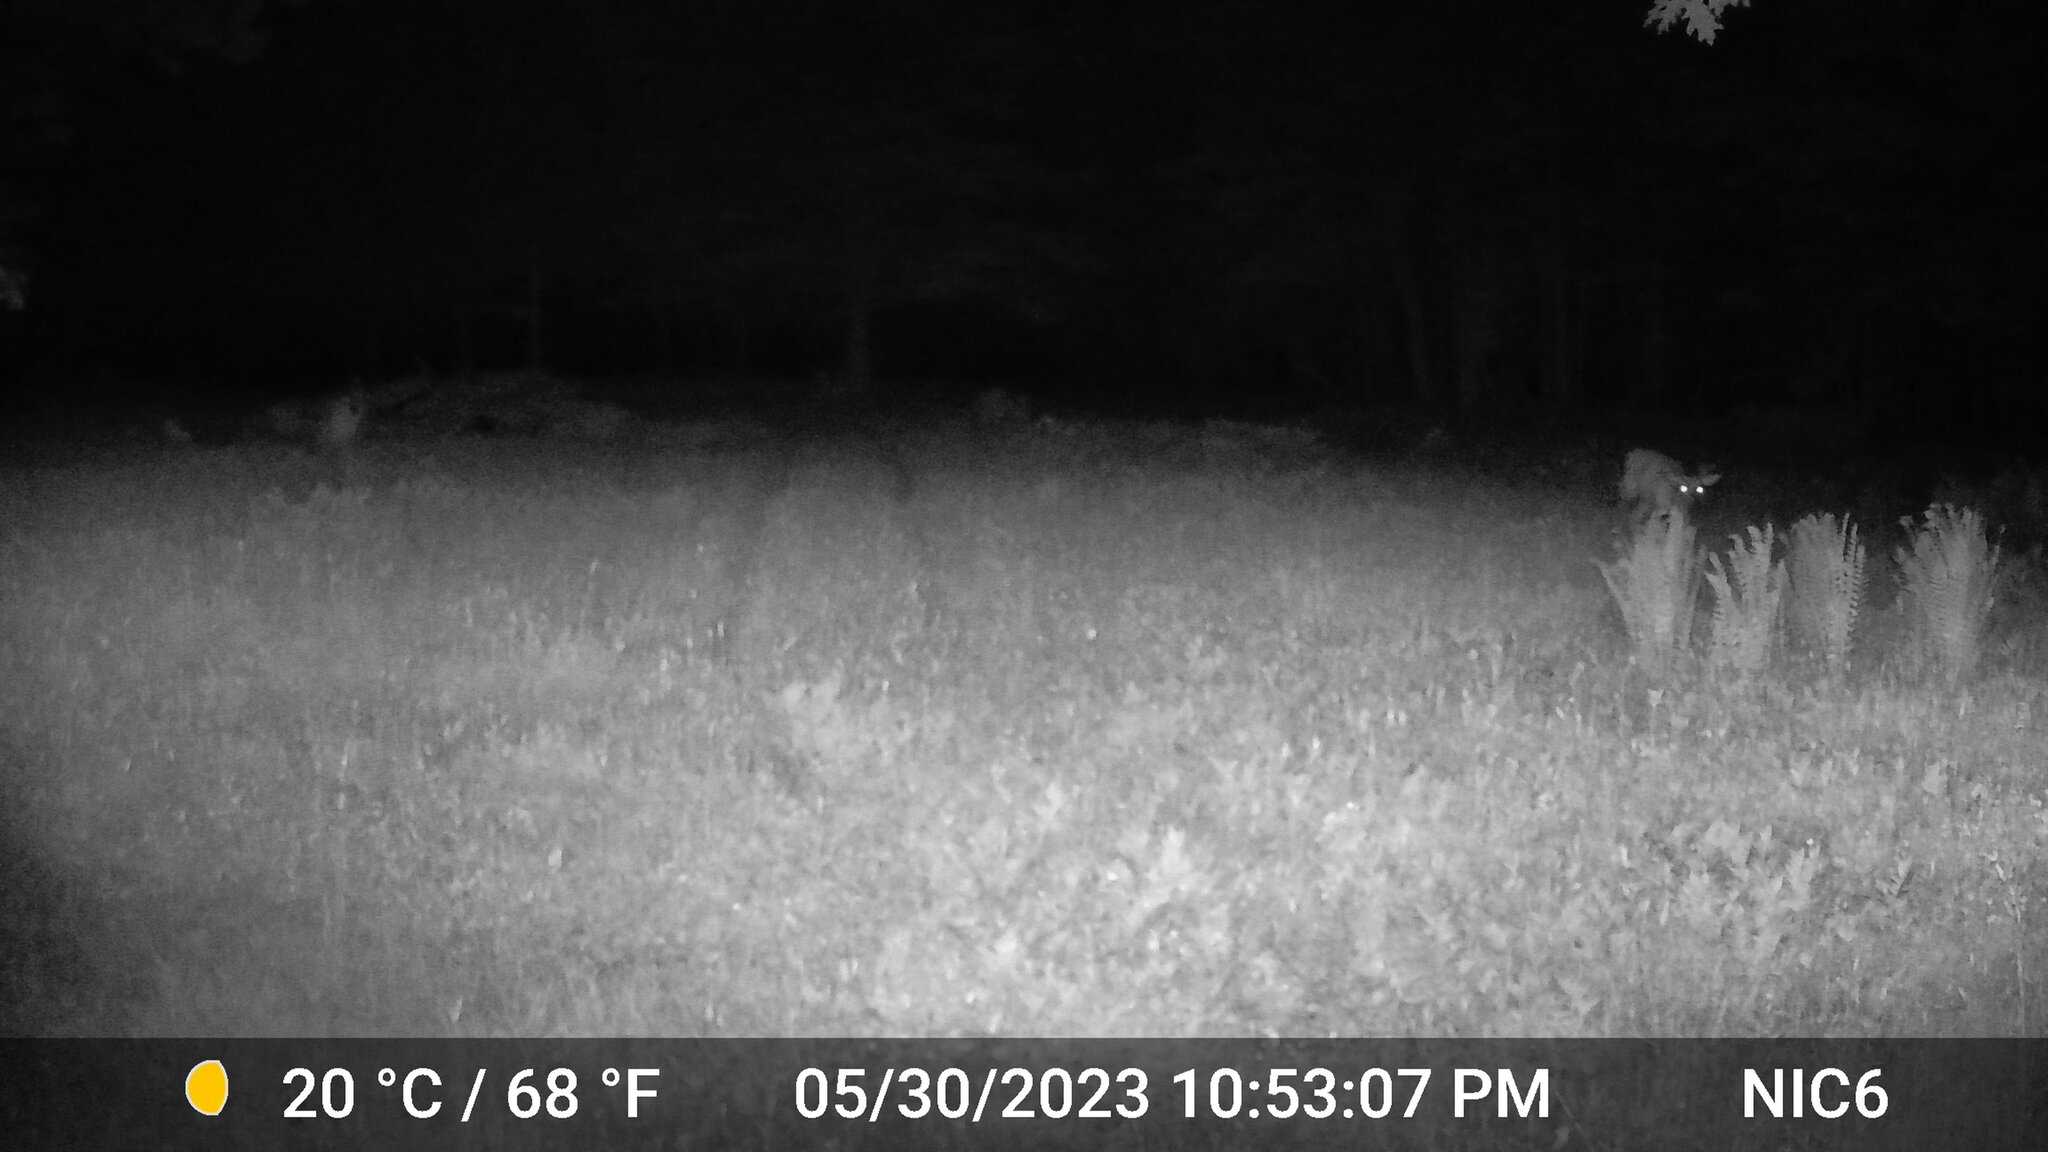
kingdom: Animalia
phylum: Chordata
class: Mammalia
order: Artiodactyla
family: Cervidae
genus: Odocoileus
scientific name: Odocoileus virginianus
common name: White-tailed deer
